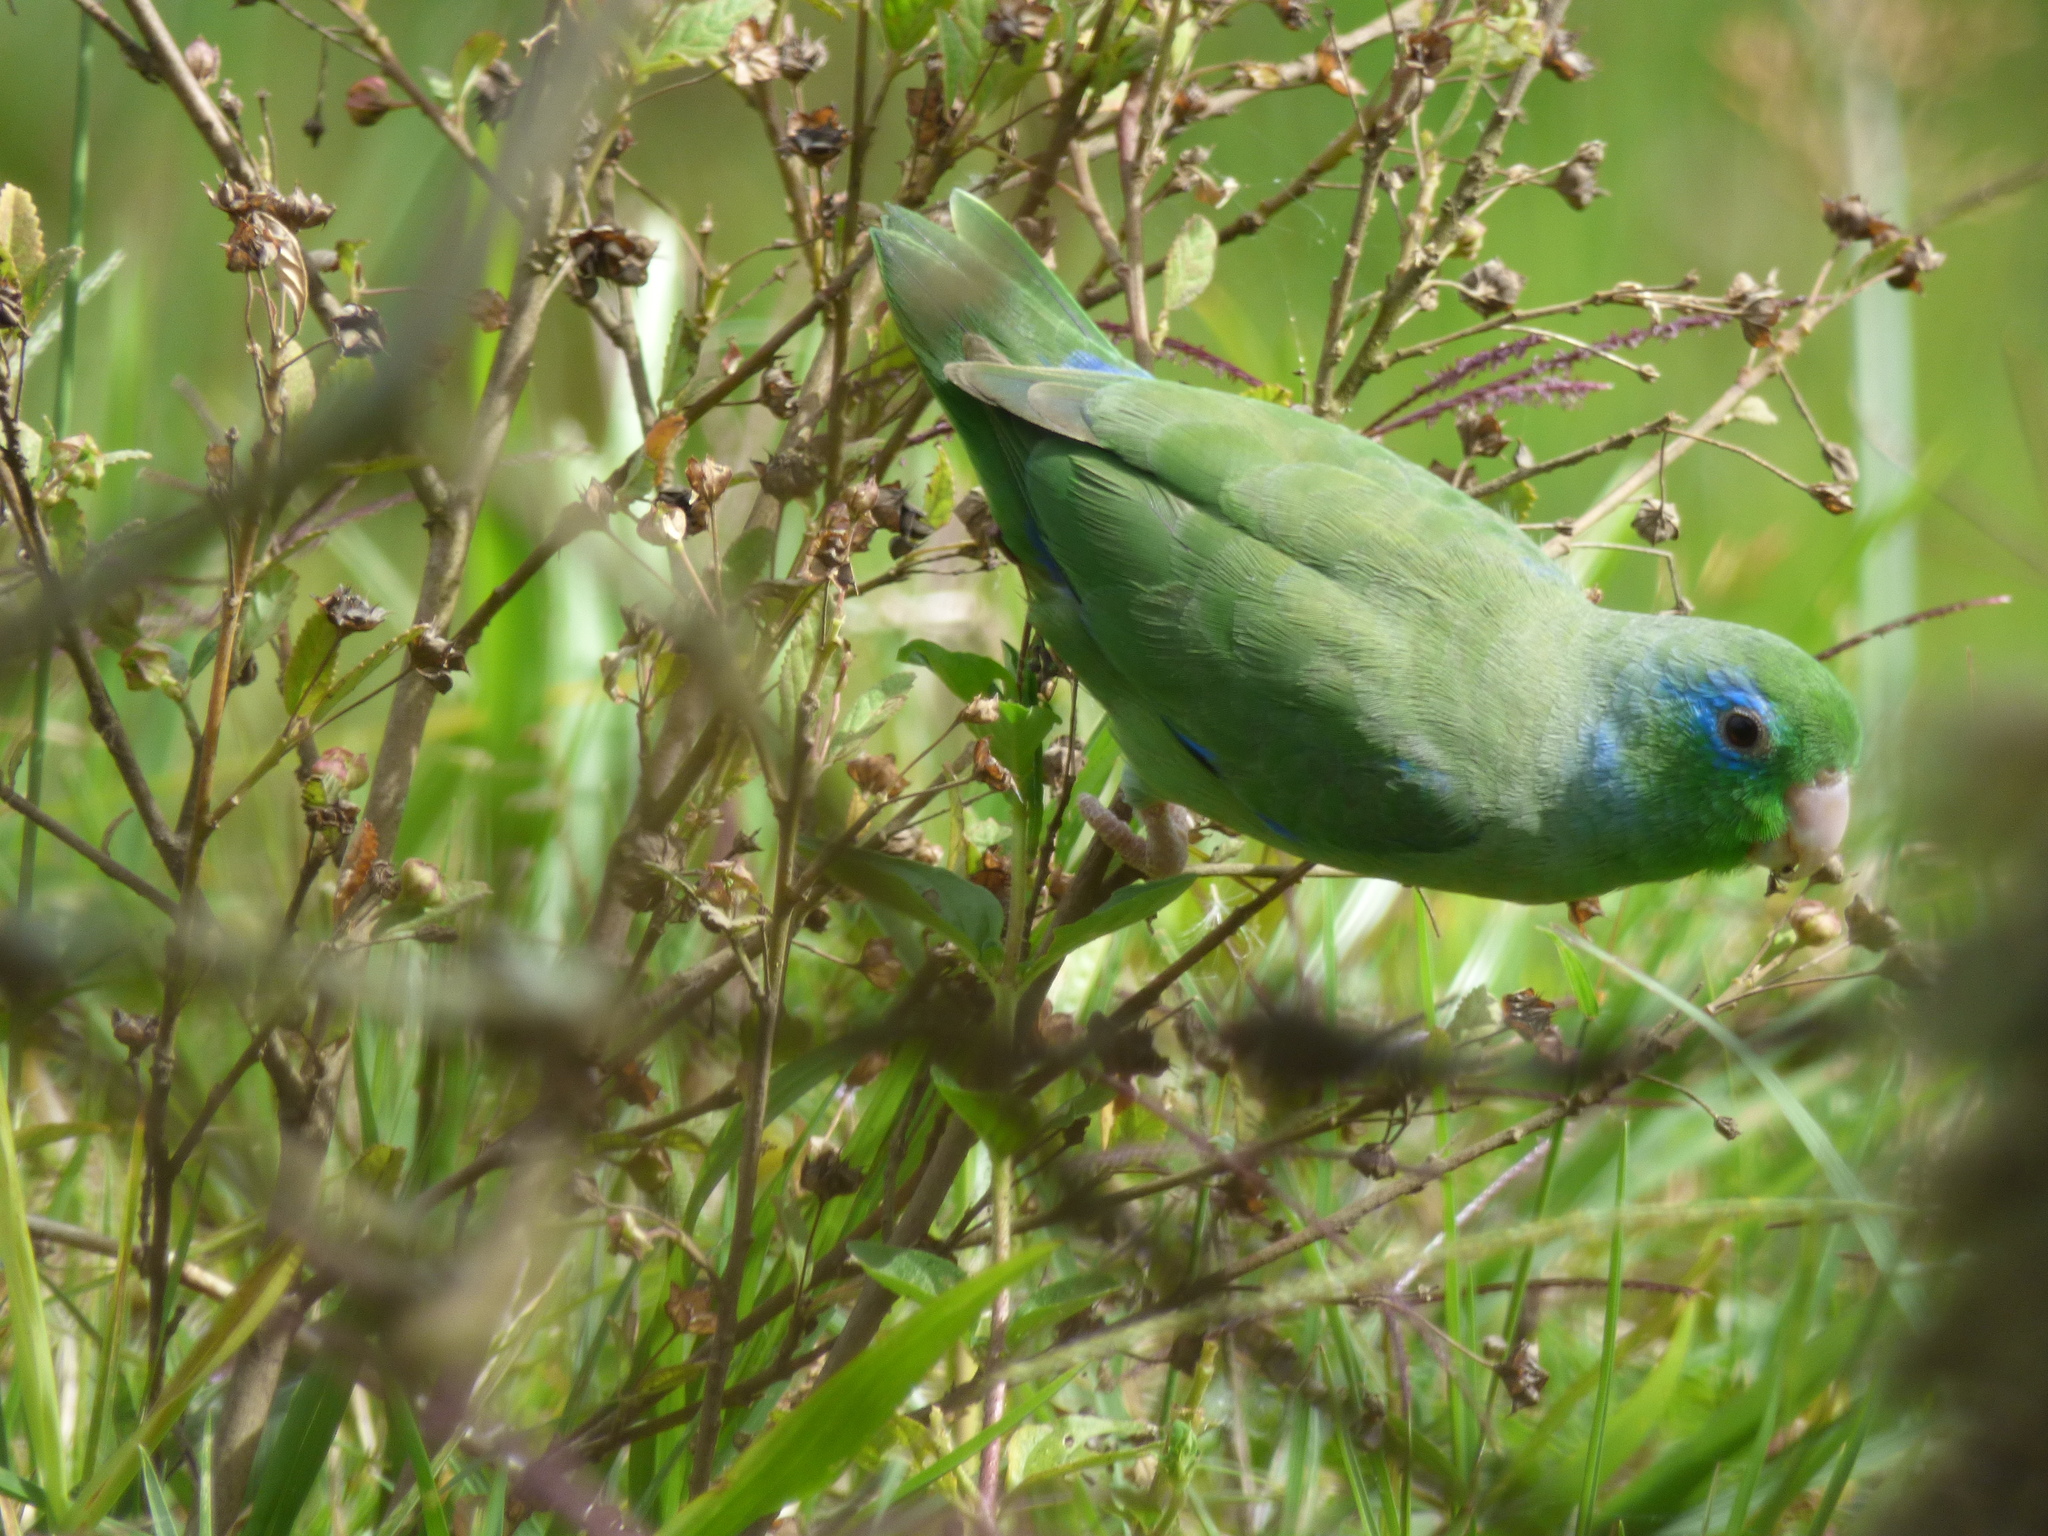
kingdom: Animalia
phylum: Chordata
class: Aves
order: Psittaciformes
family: Psittacidae
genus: Forpus
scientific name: Forpus conspicillatus
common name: Spectacled parrotlet
